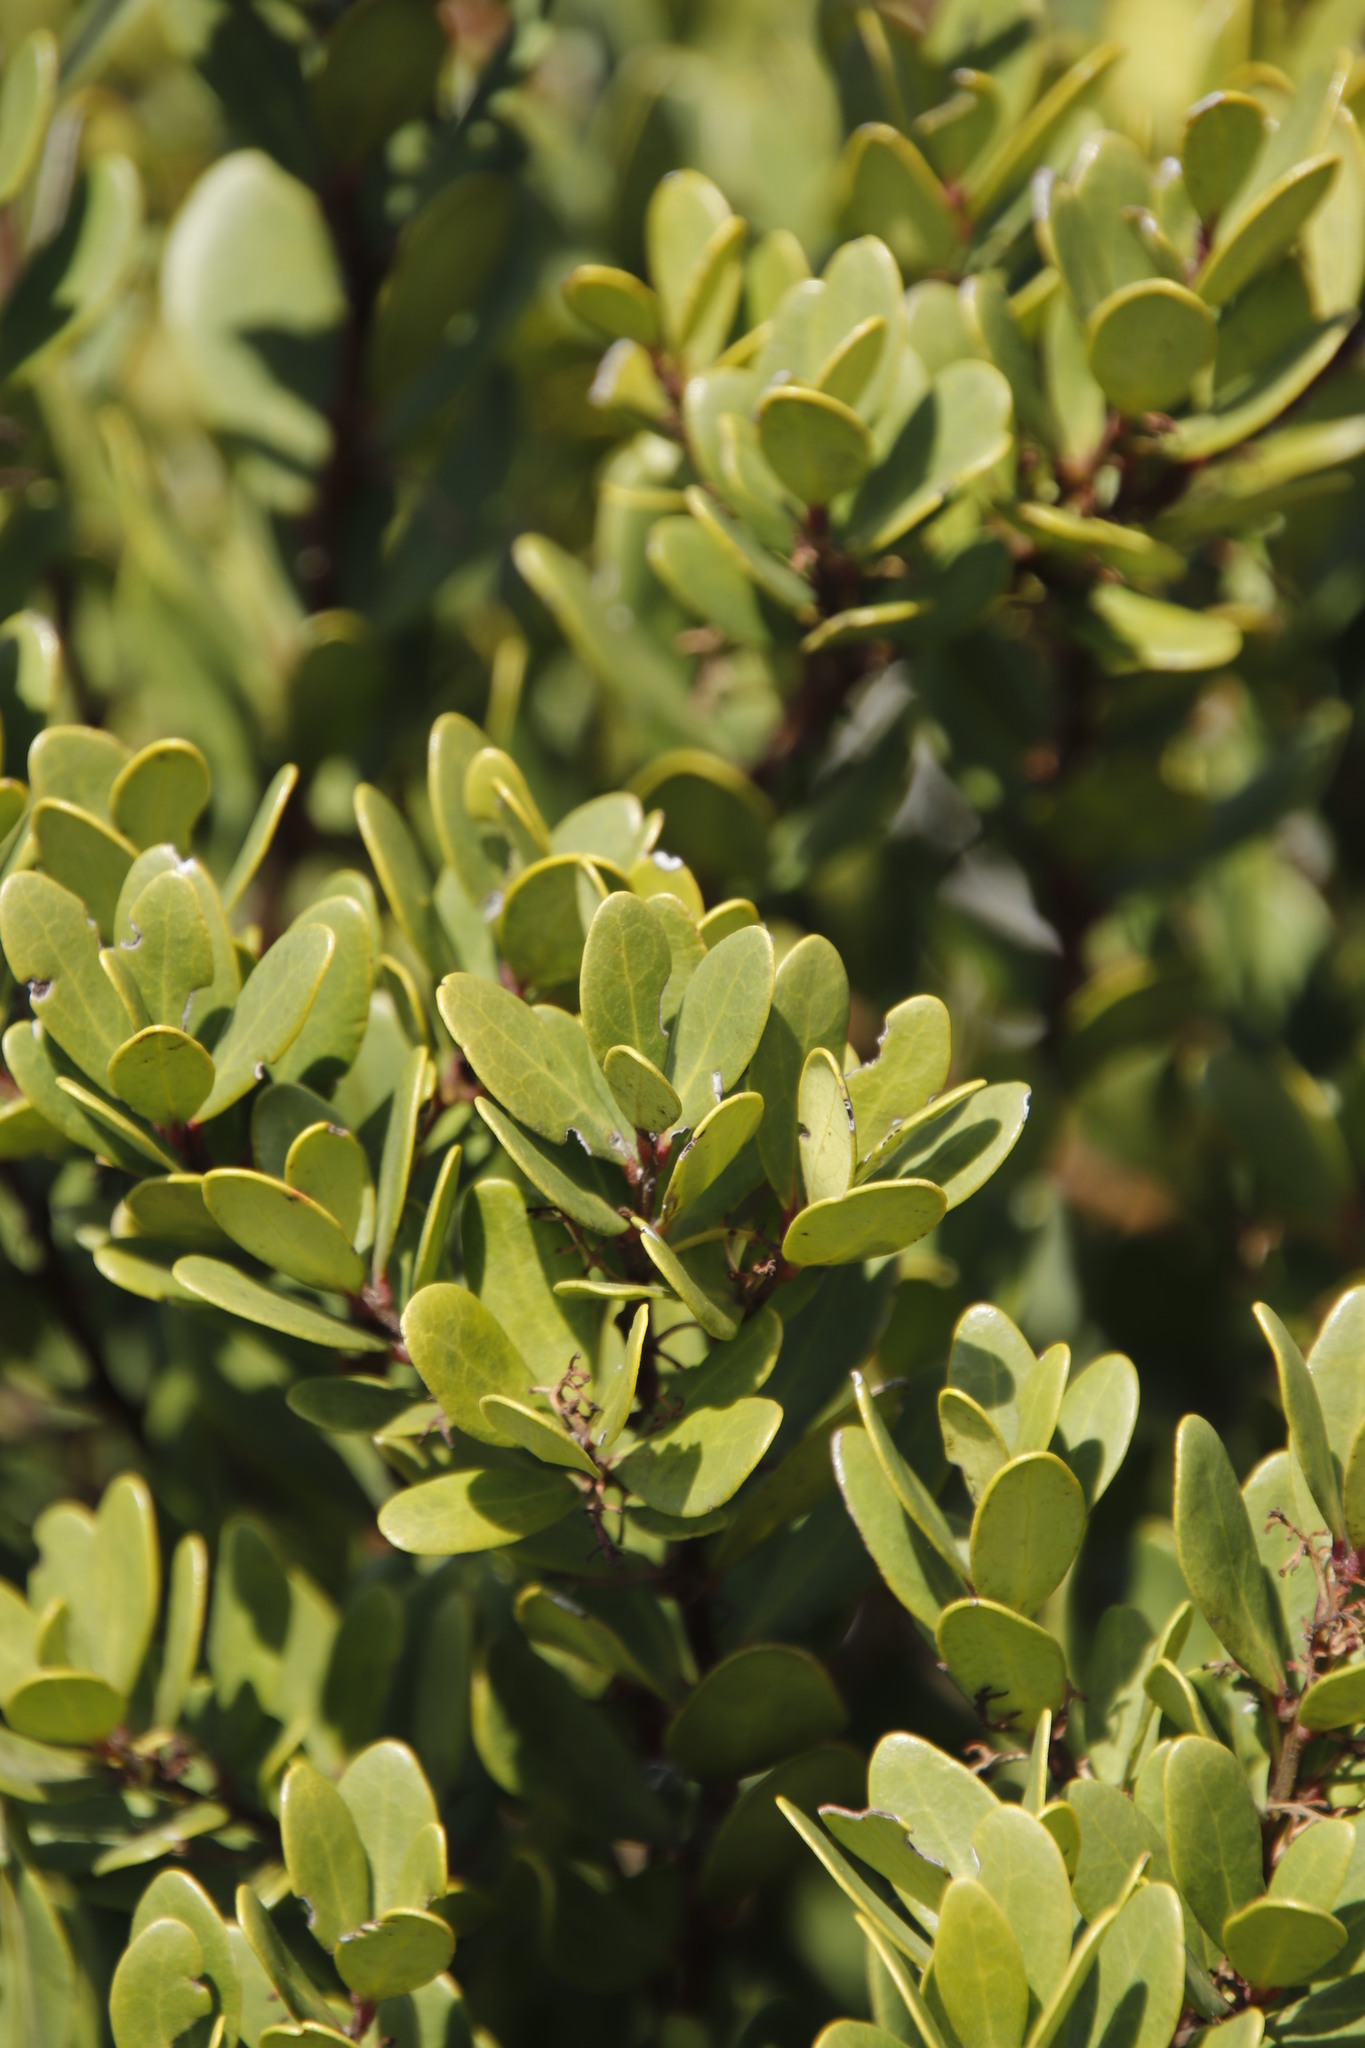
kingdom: Plantae
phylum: Tracheophyta
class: Magnoliopsida
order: Ericales
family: Ebenaceae
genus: Euclea
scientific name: Euclea racemosa
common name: Dune guarri
